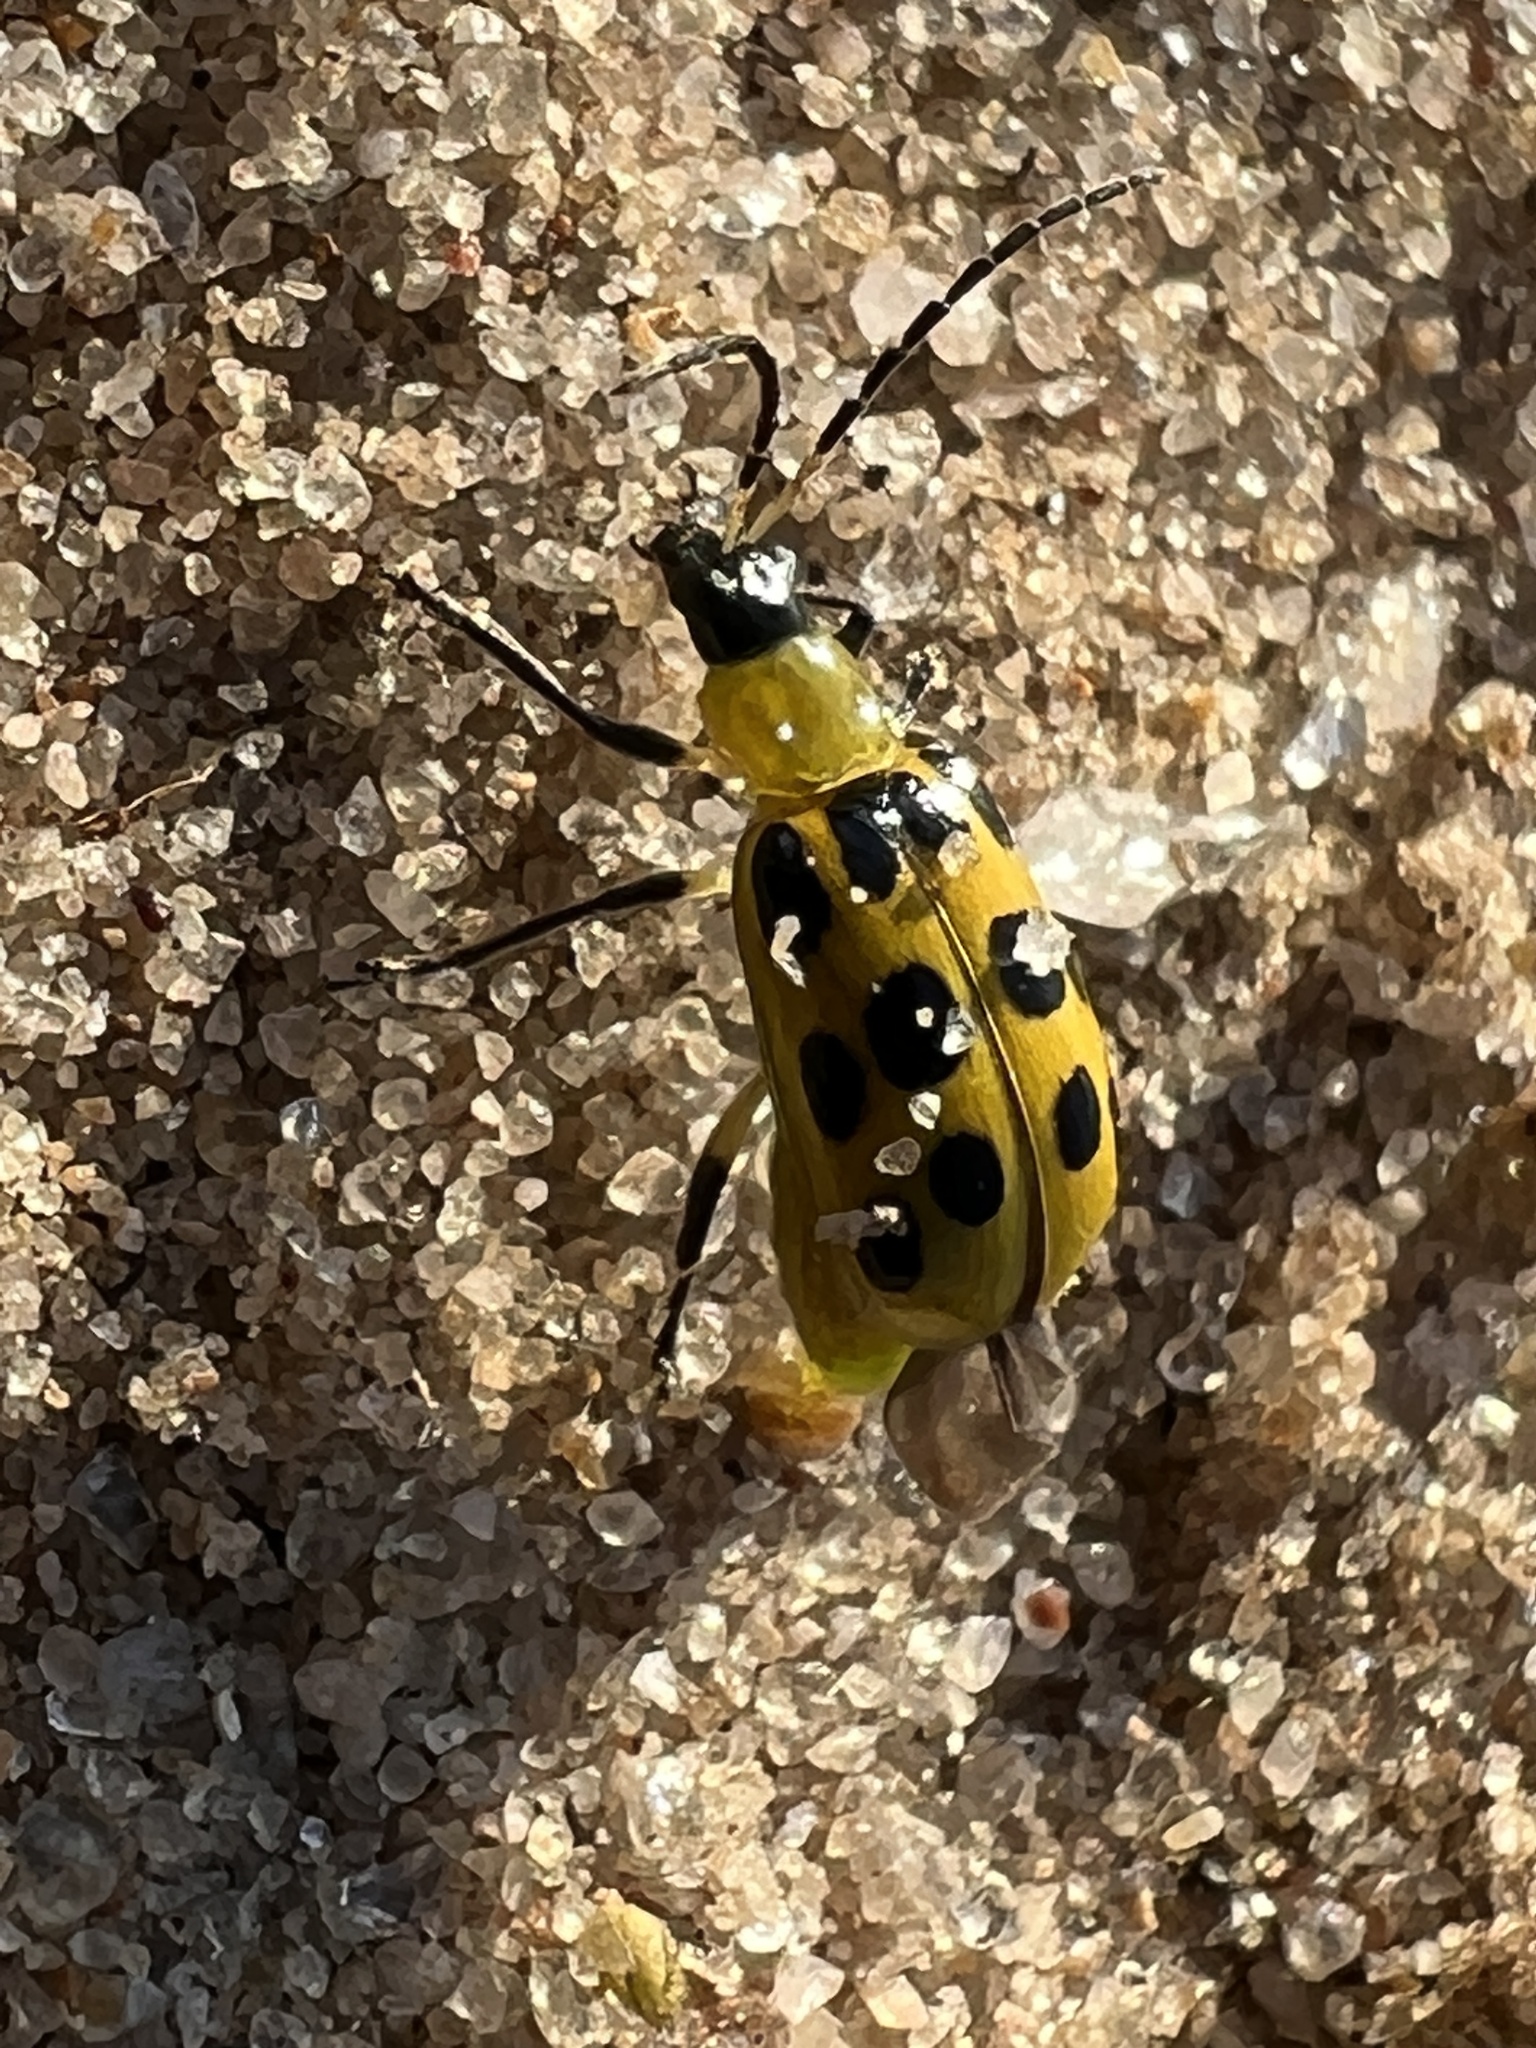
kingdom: Animalia
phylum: Arthropoda
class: Insecta
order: Coleoptera
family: Chrysomelidae
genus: Diabrotica
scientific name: Diabrotica undecimpunctata
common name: Spotted cucumber beetle
